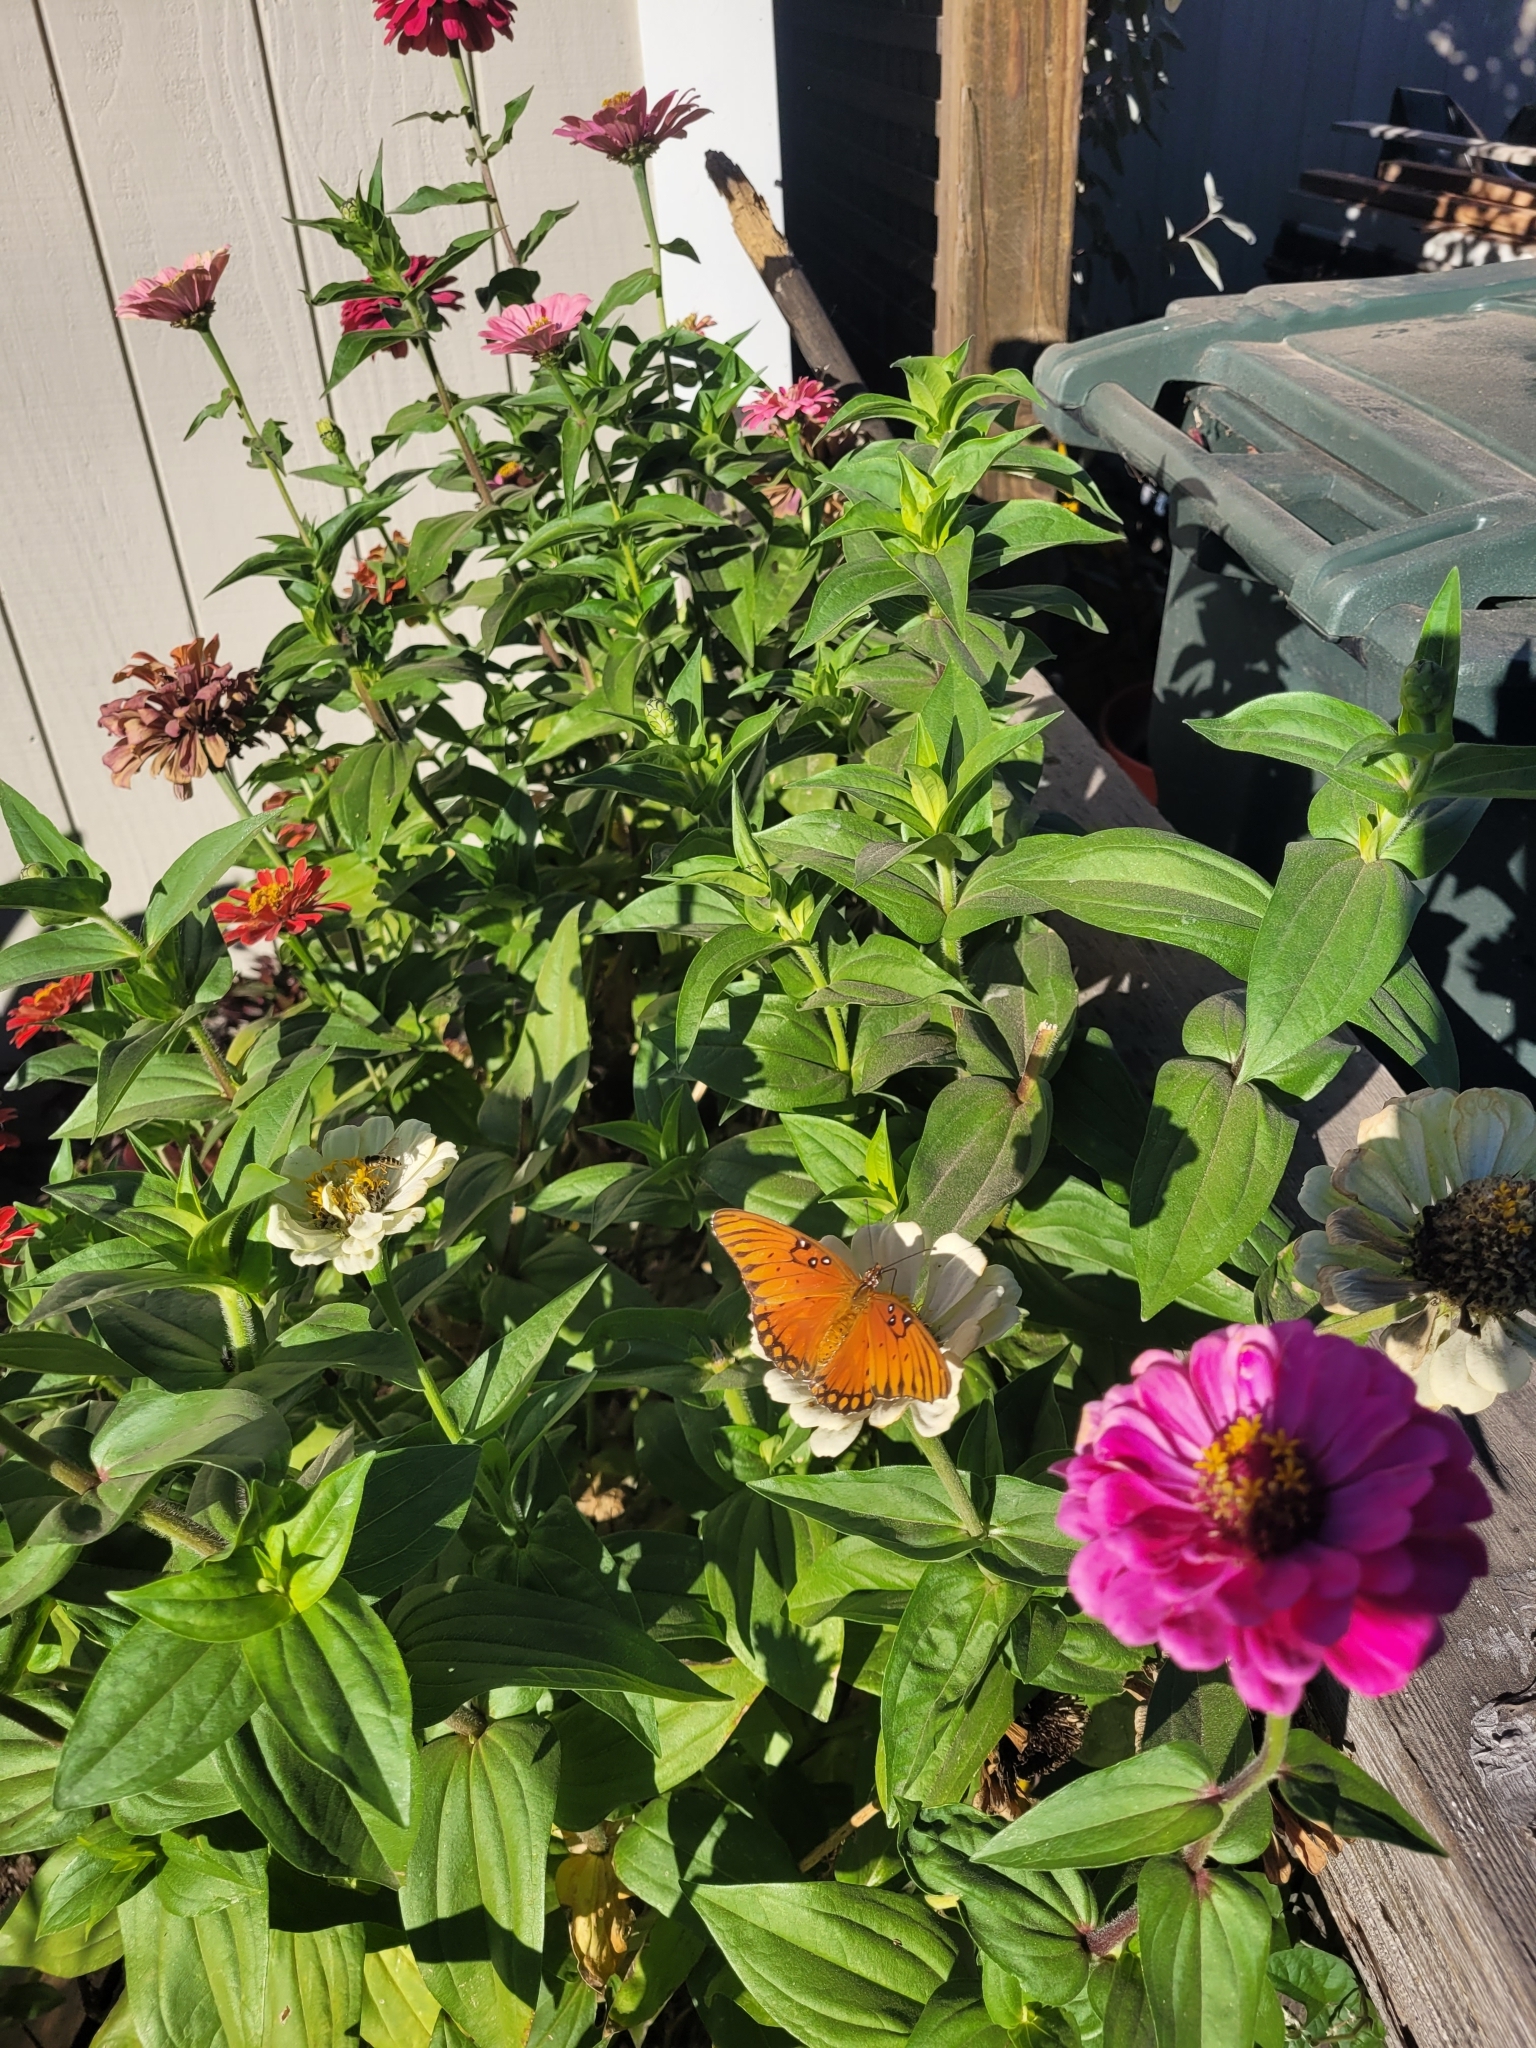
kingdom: Animalia
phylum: Arthropoda
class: Insecta
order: Lepidoptera
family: Nymphalidae
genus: Dione
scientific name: Dione vanillae
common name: Gulf fritillary
